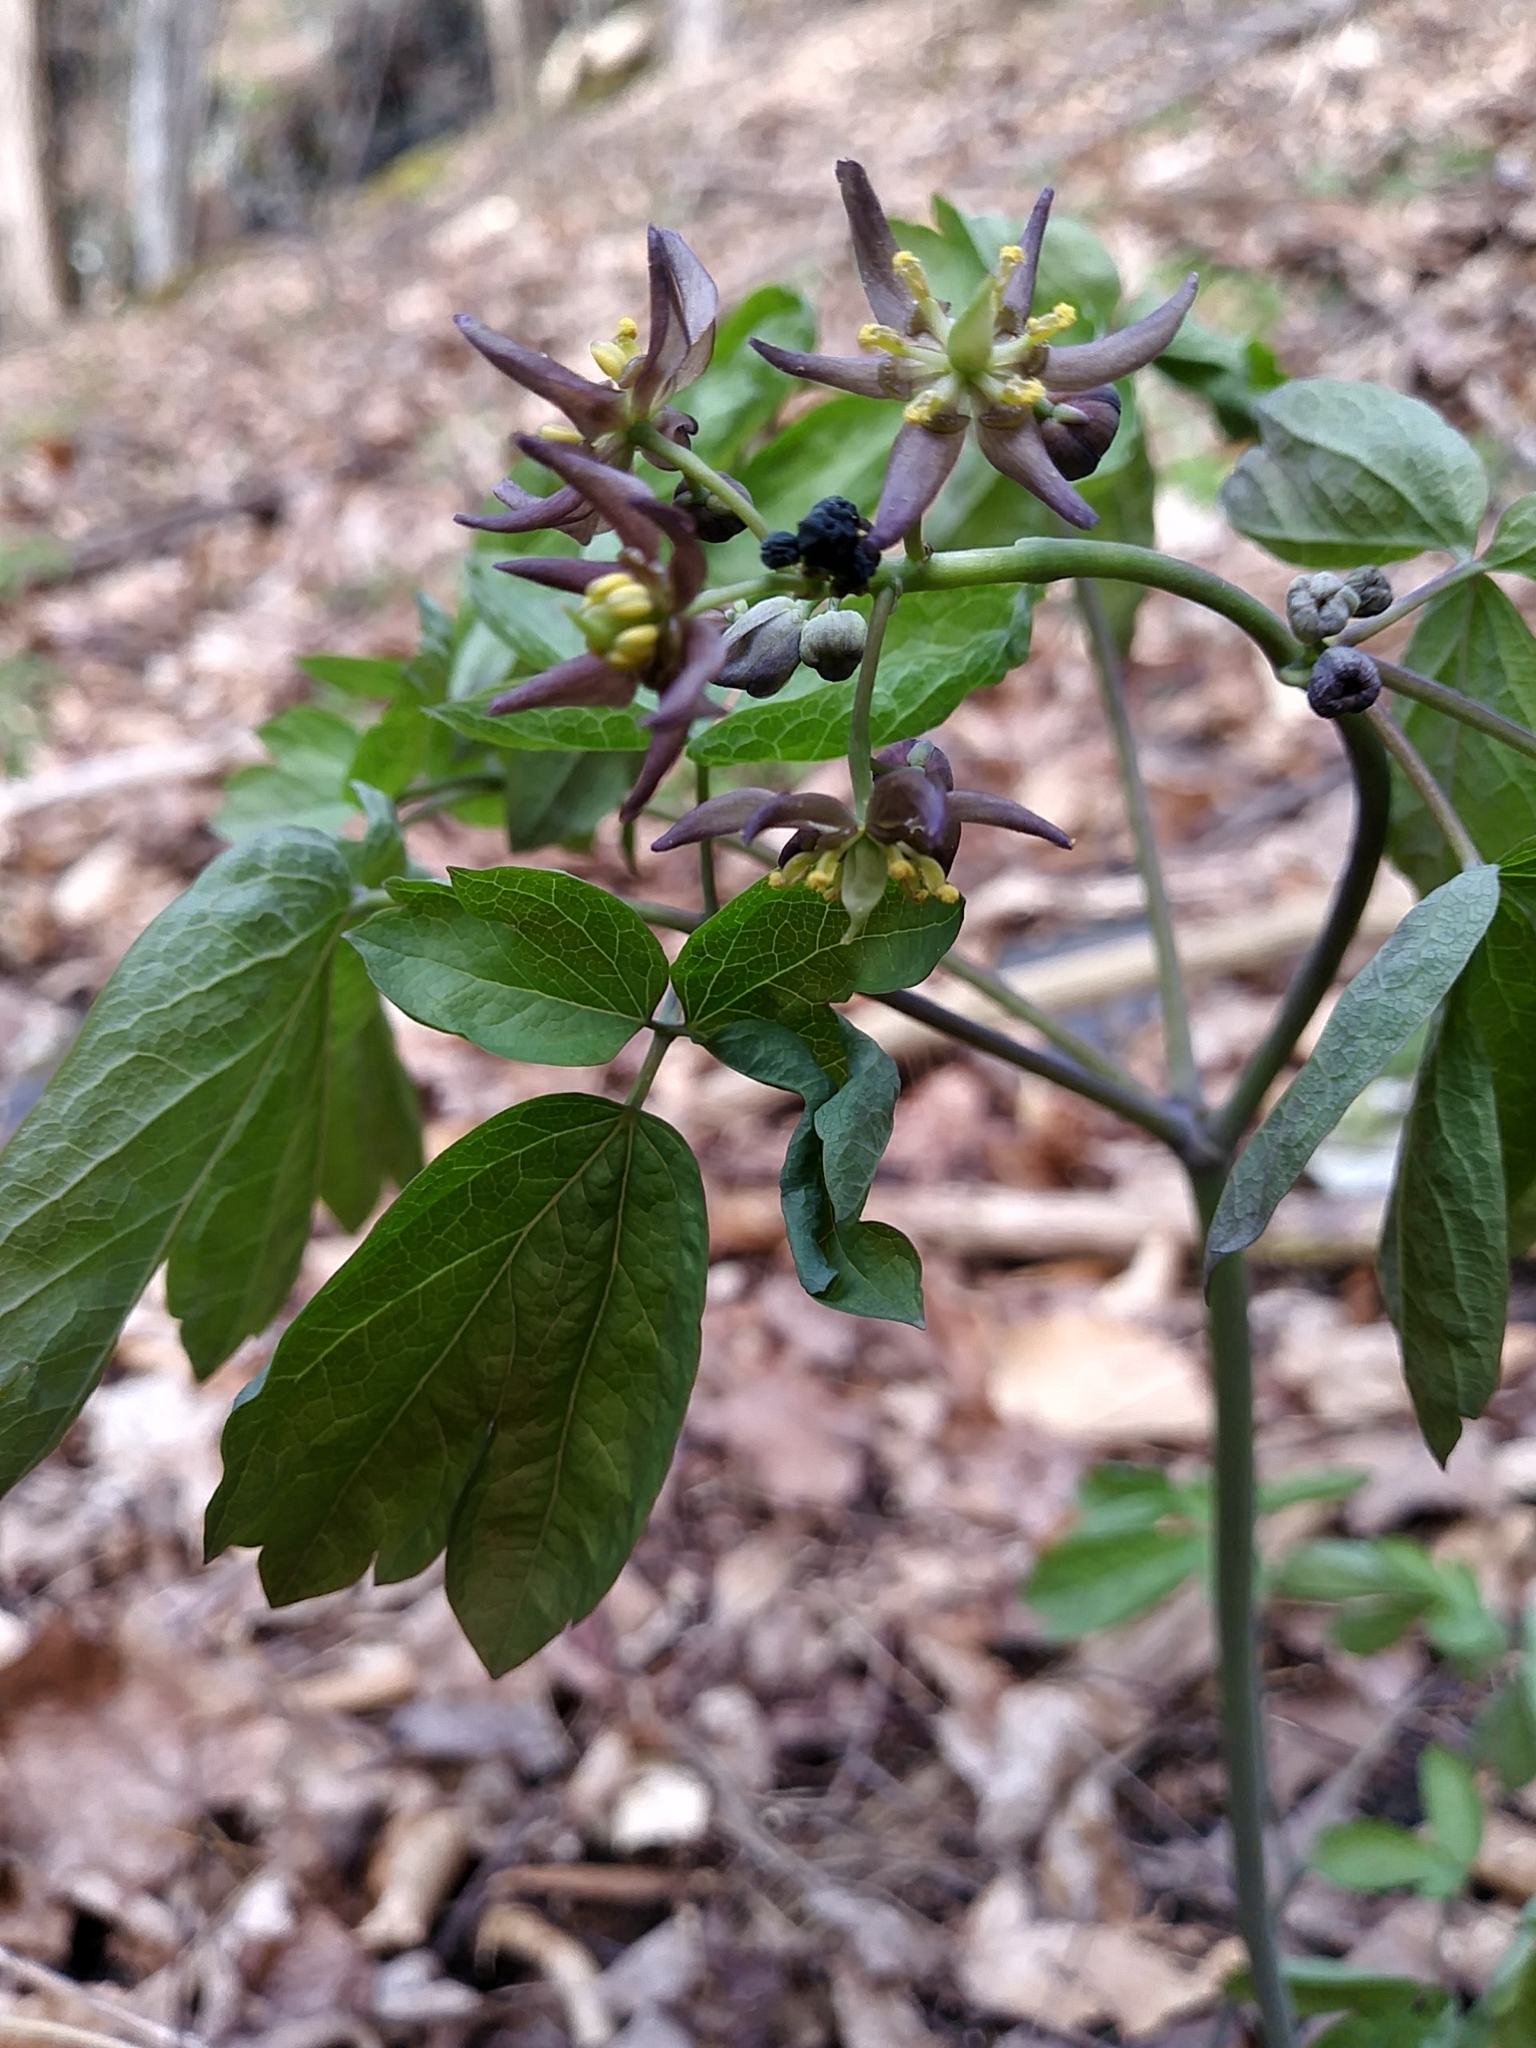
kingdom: Plantae
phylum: Tracheophyta
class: Magnoliopsida
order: Ranunculales
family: Berberidaceae
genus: Caulophyllum
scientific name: Caulophyllum giganteum
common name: Blue cohosh
